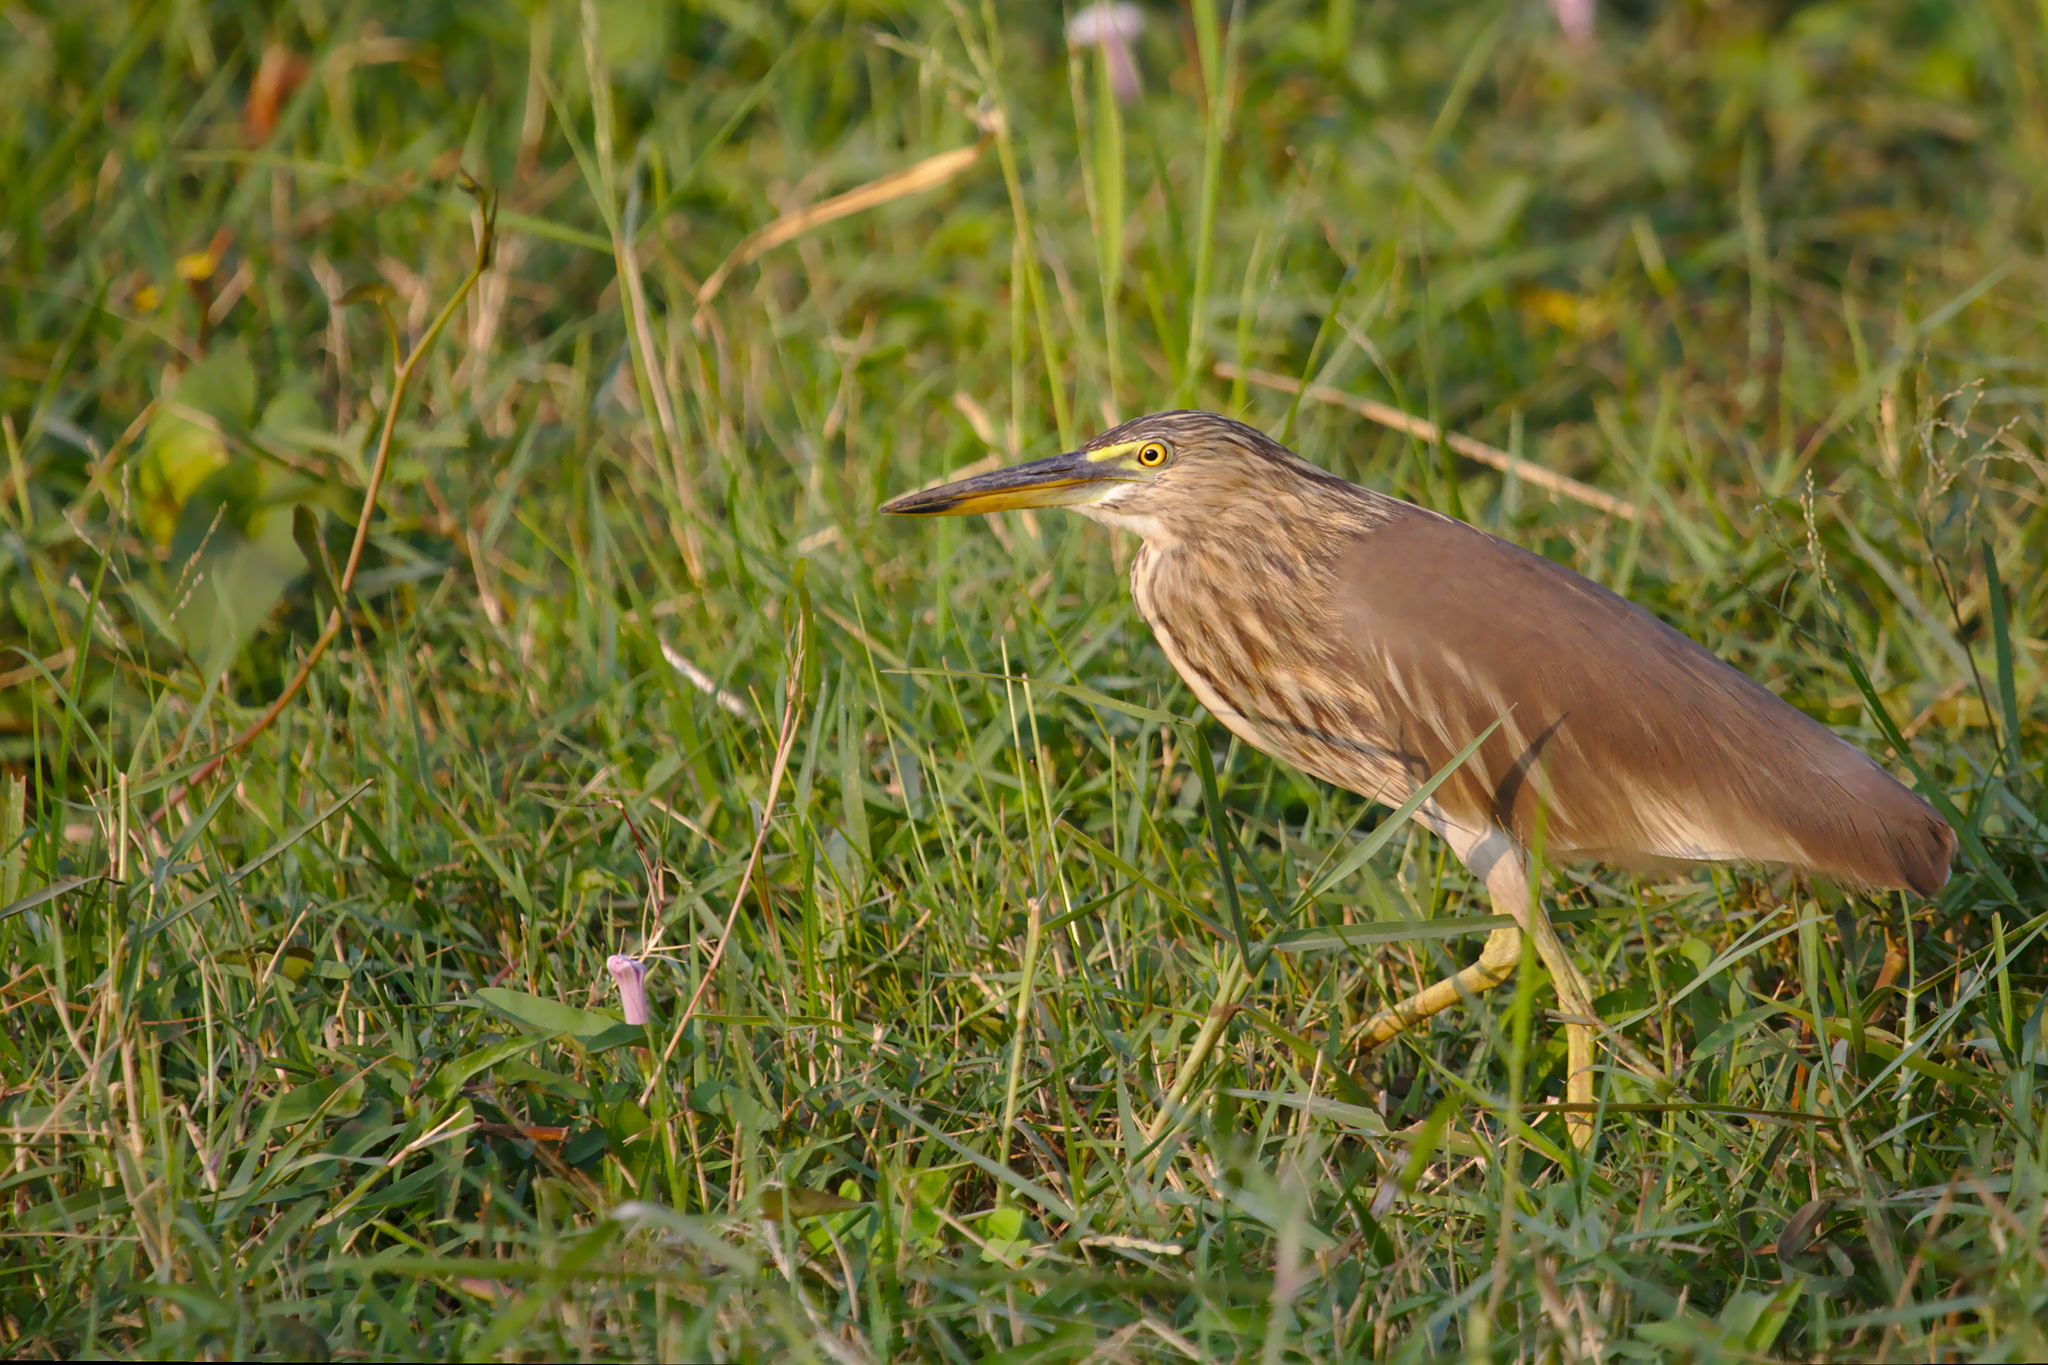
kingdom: Animalia
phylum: Chordata
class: Aves
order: Pelecaniformes
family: Ardeidae
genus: Ardeola
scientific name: Ardeola grayii
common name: Indian pond heron
